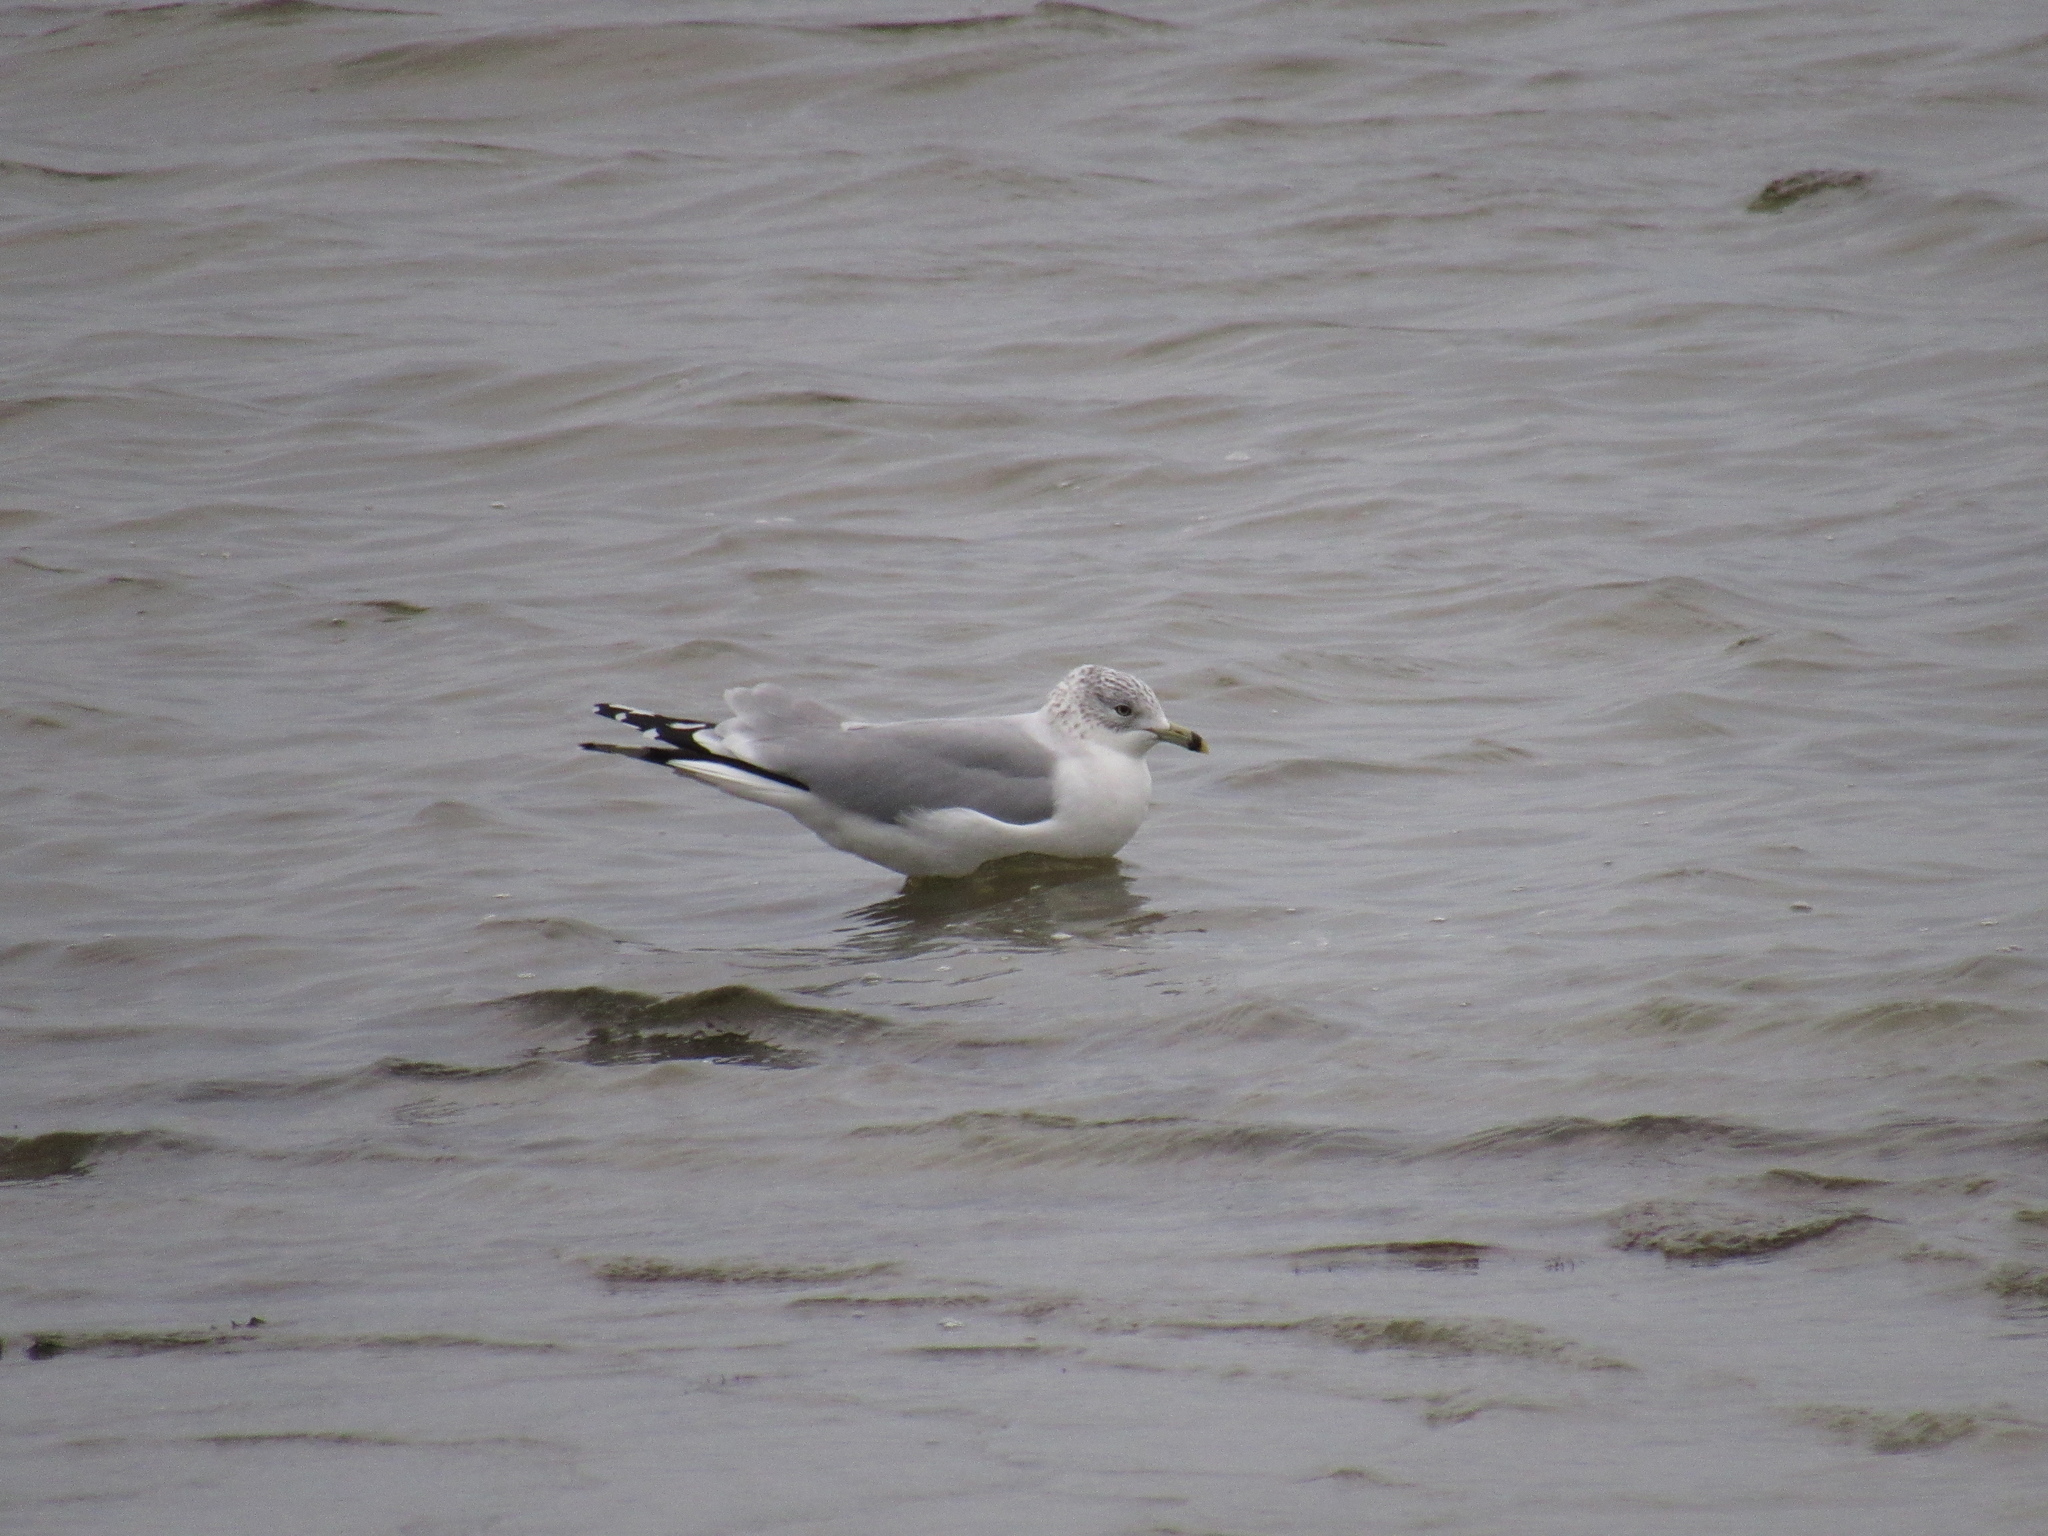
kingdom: Animalia
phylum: Chordata
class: Aves
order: Charadriiformes
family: Laridae
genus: Larus
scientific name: Larus delawarensis
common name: Ring-billed gull
